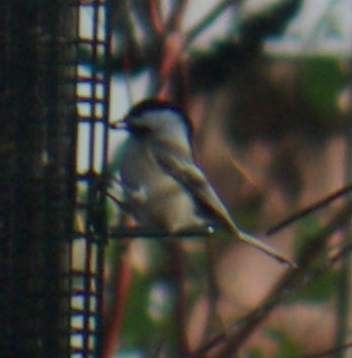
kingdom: Animalia
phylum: Chordata
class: Aves
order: Passeriformes
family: Paridae
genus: Poecile
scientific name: Poecile atricapillus
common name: Black-capped chickadee
